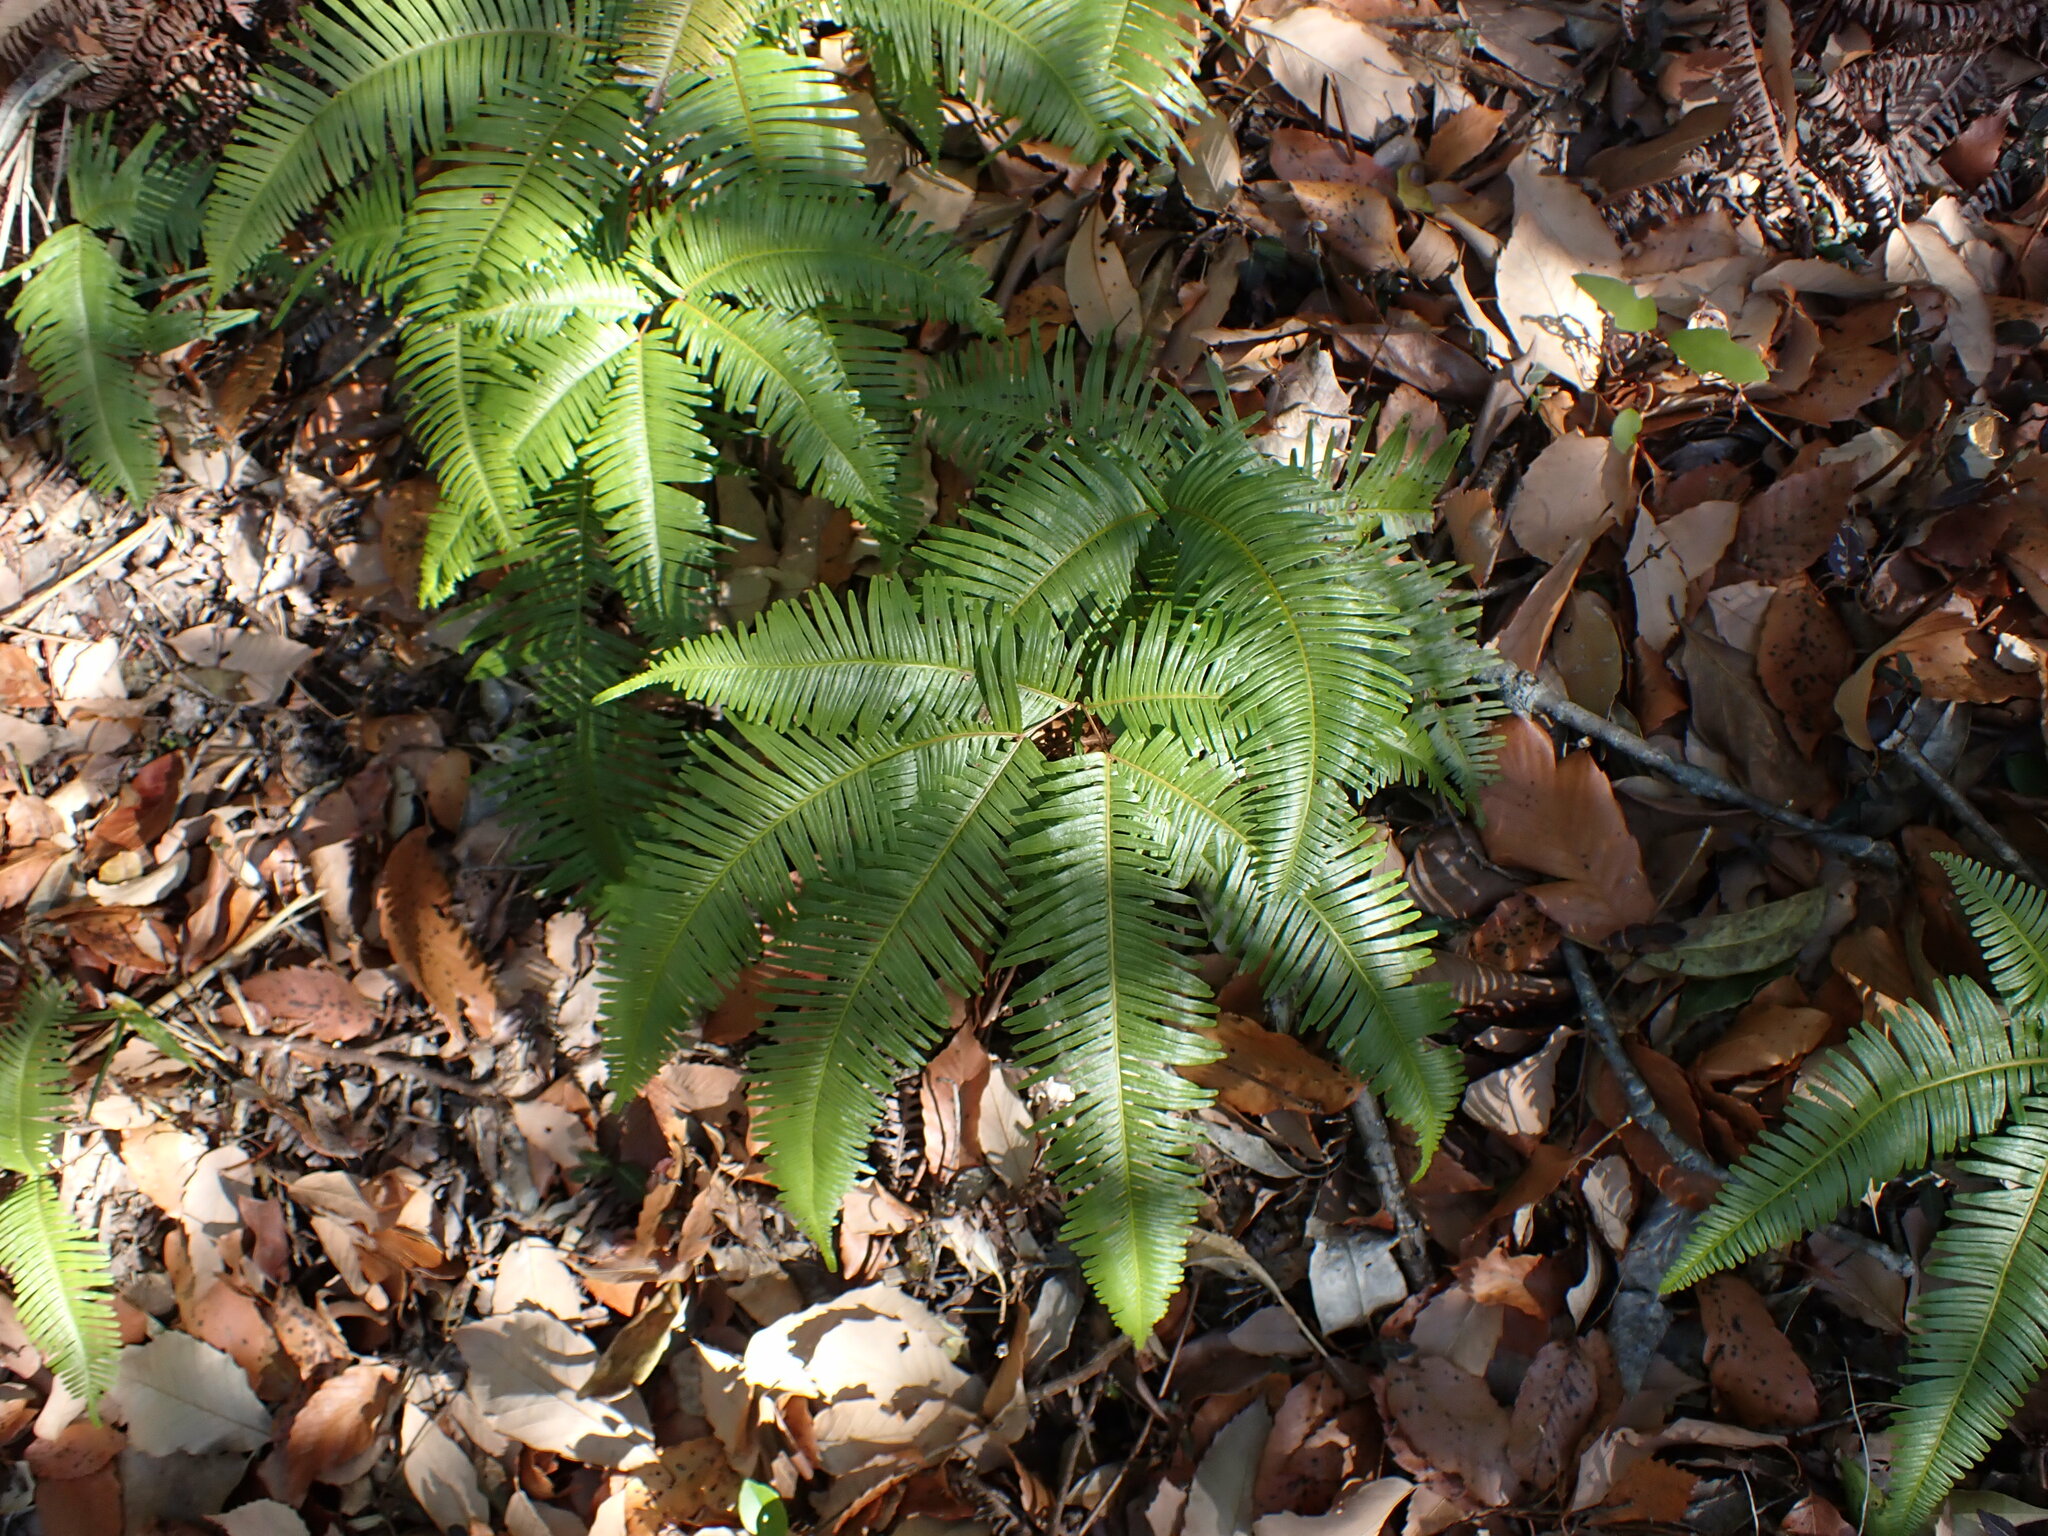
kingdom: Plantae
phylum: Tracheophyta
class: Polypodiopsida
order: Gleicheniales
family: Gleicheniaceae
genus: Dicranopteris
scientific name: Dicranopteris linearis
